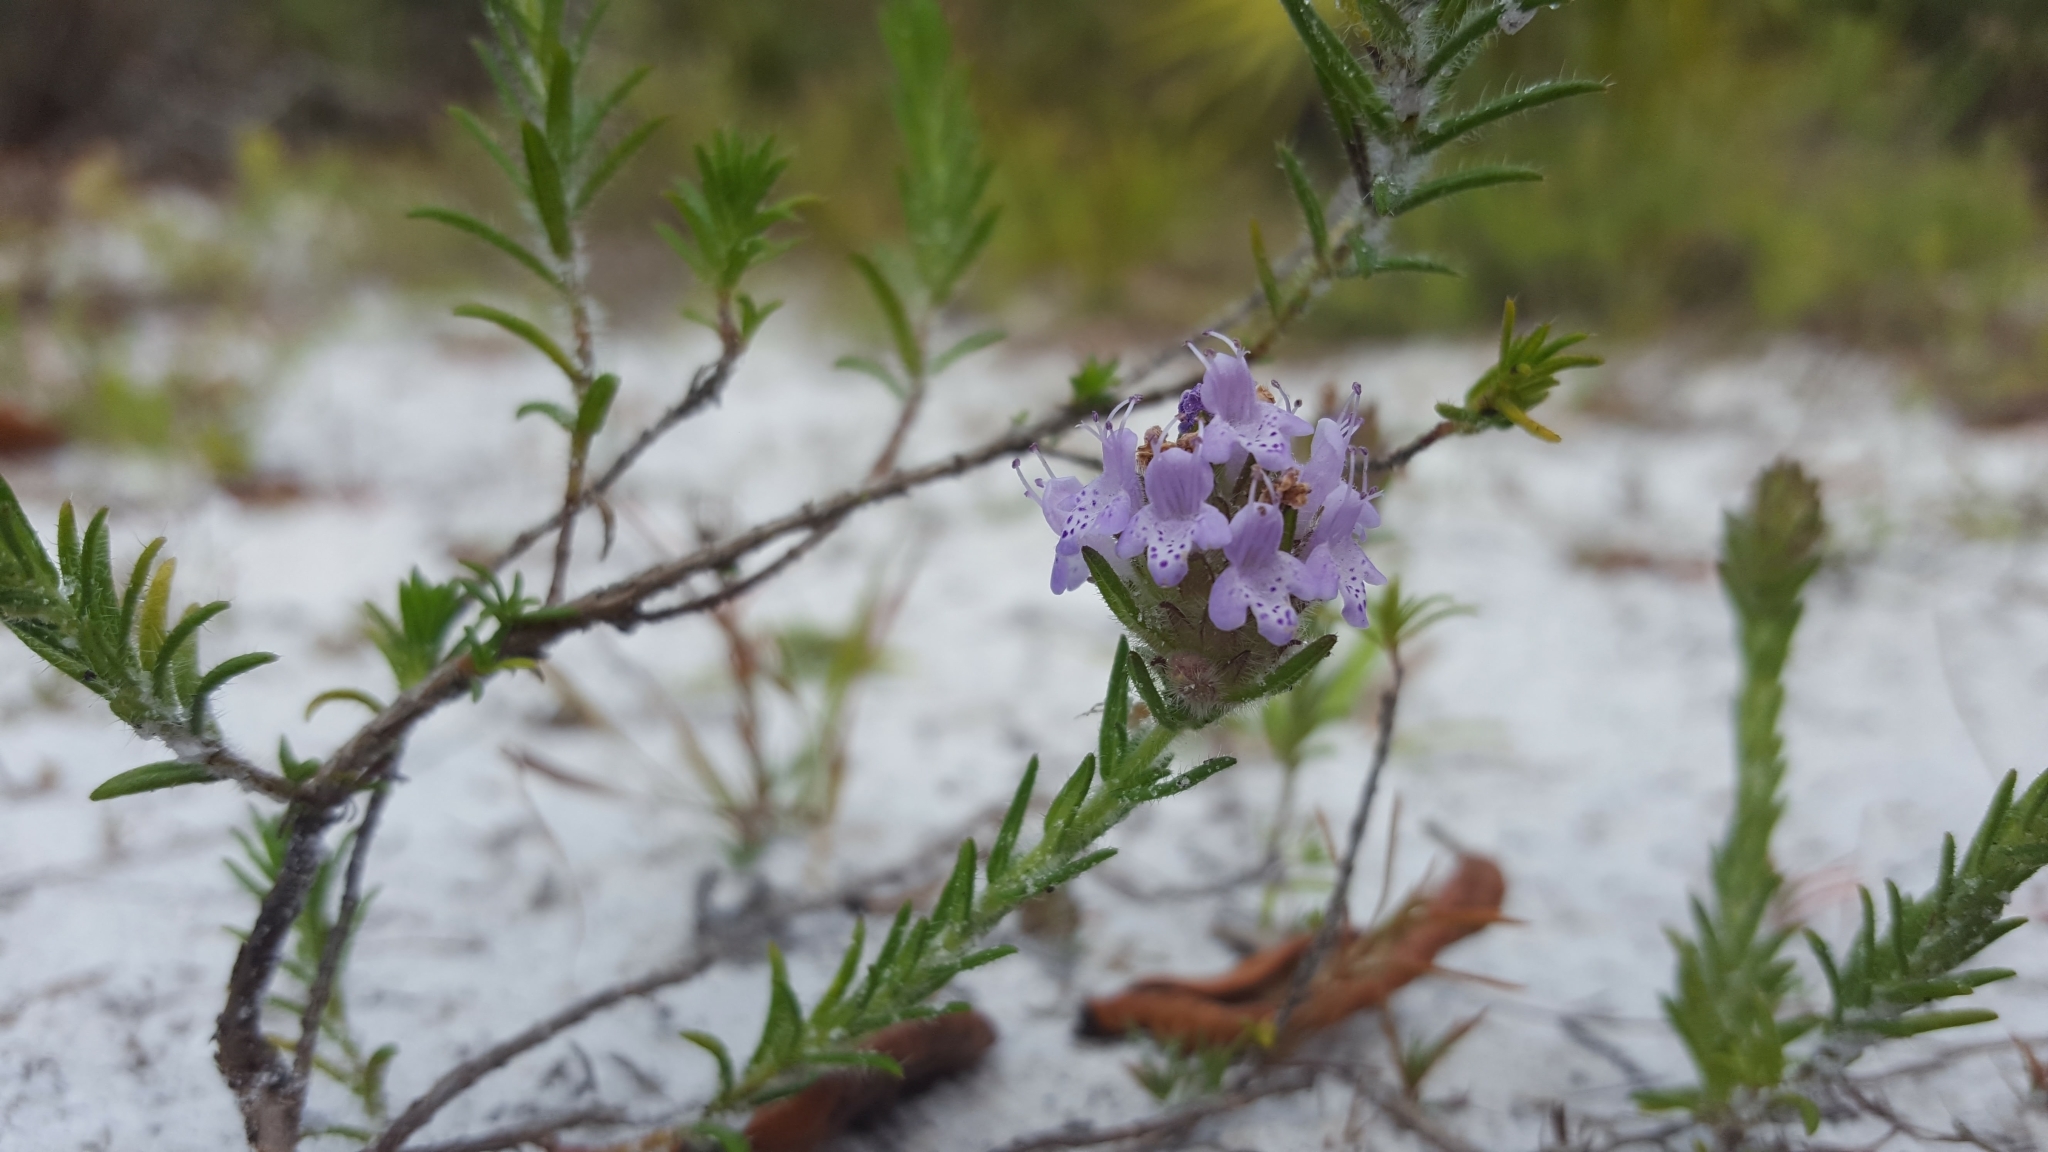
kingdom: Plantae
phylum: Tracheophyta
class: Magnoliopsida
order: Lamiales
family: Lamiaceae
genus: Piloblephis
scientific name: Piloblephis rigida
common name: Wild pennyroyal
